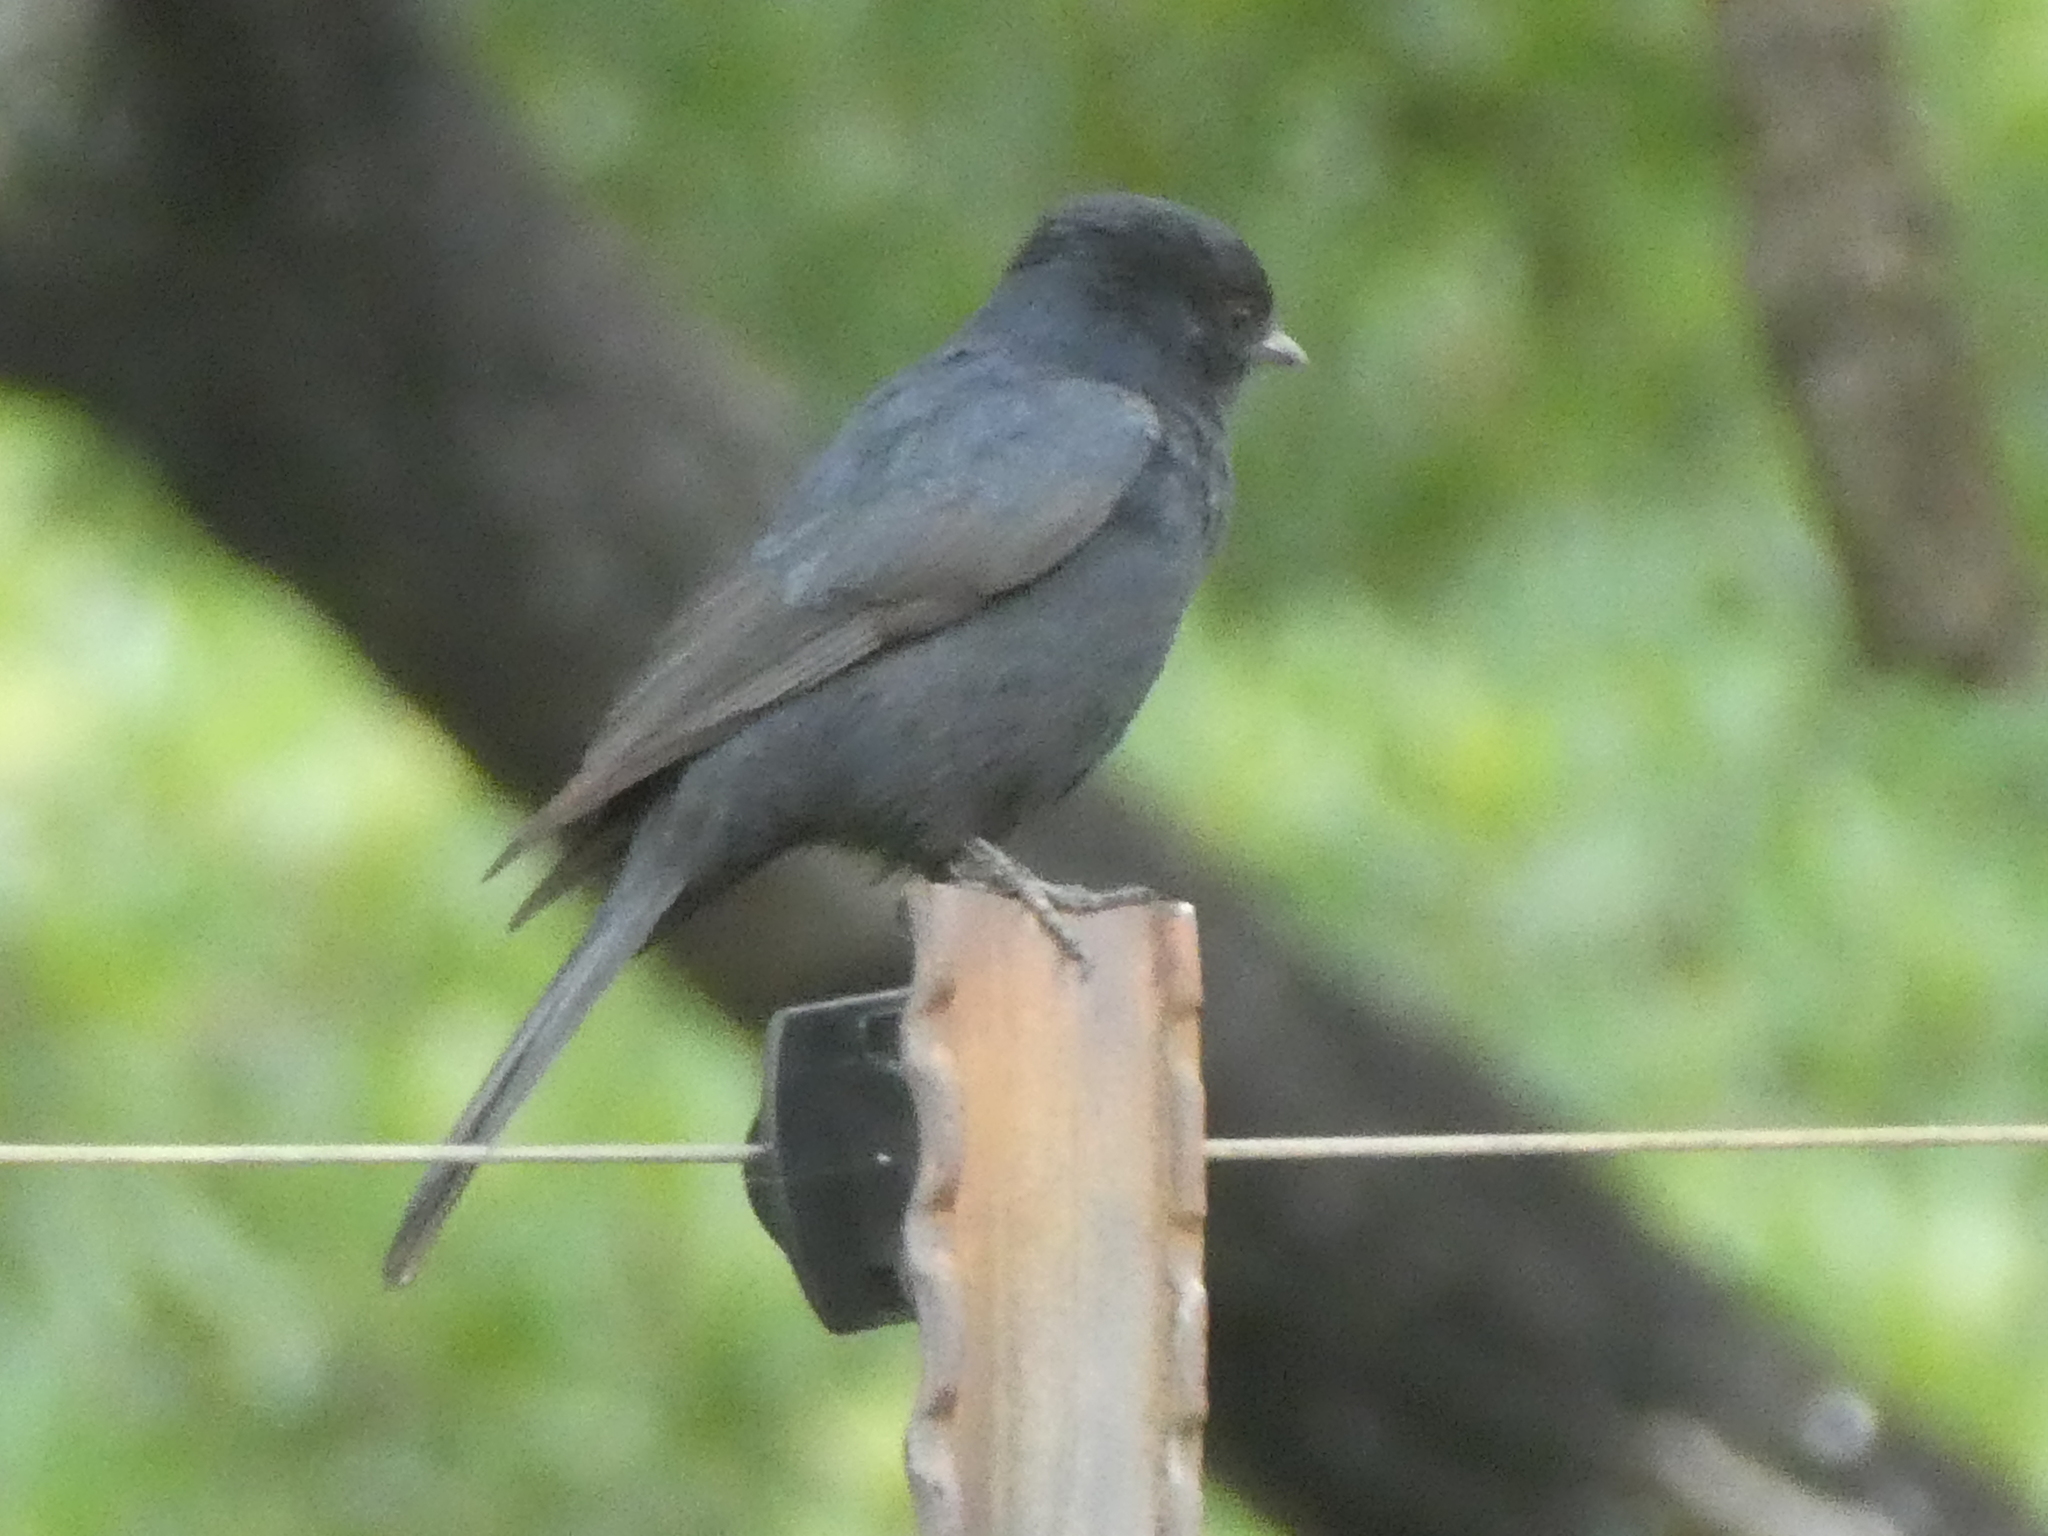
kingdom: Animalia
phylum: Chordata
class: Aves
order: Passeriformes
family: Muscicapidae
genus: Melaenornis
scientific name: Melaenornis pammelaina
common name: Southern black flycatcher
